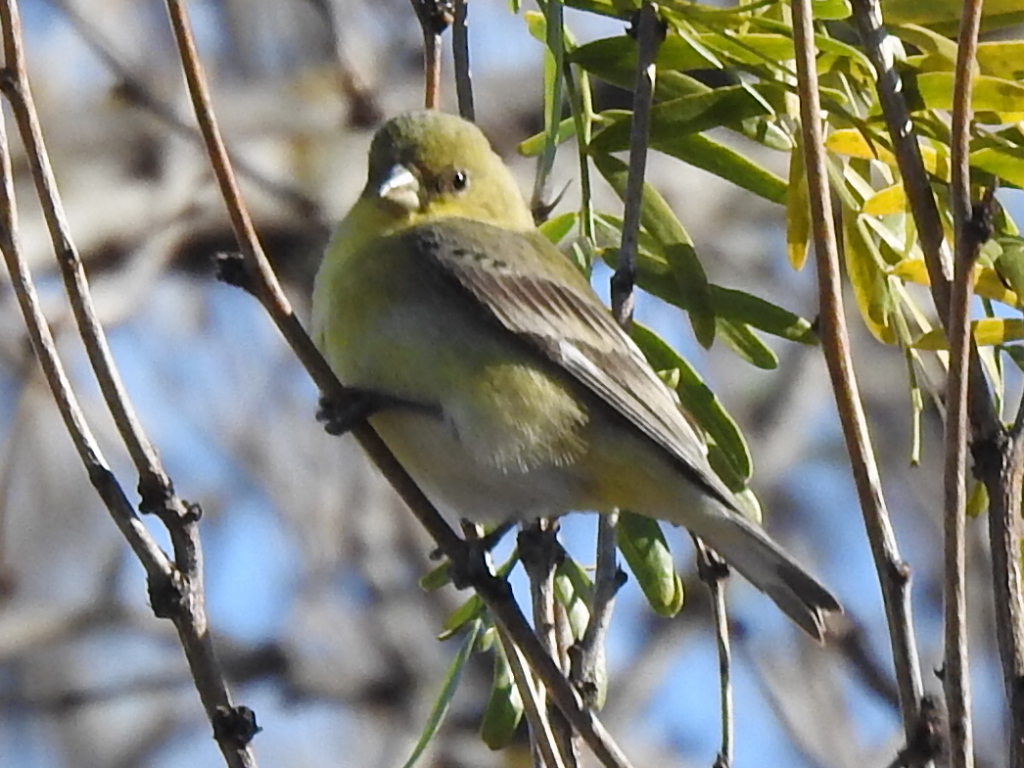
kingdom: Animalia
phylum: Chordata
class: Aves
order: Passeriformes
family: Fringillidae
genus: Spinus
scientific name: Spinus psaltria
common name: Lesser goldfinch
